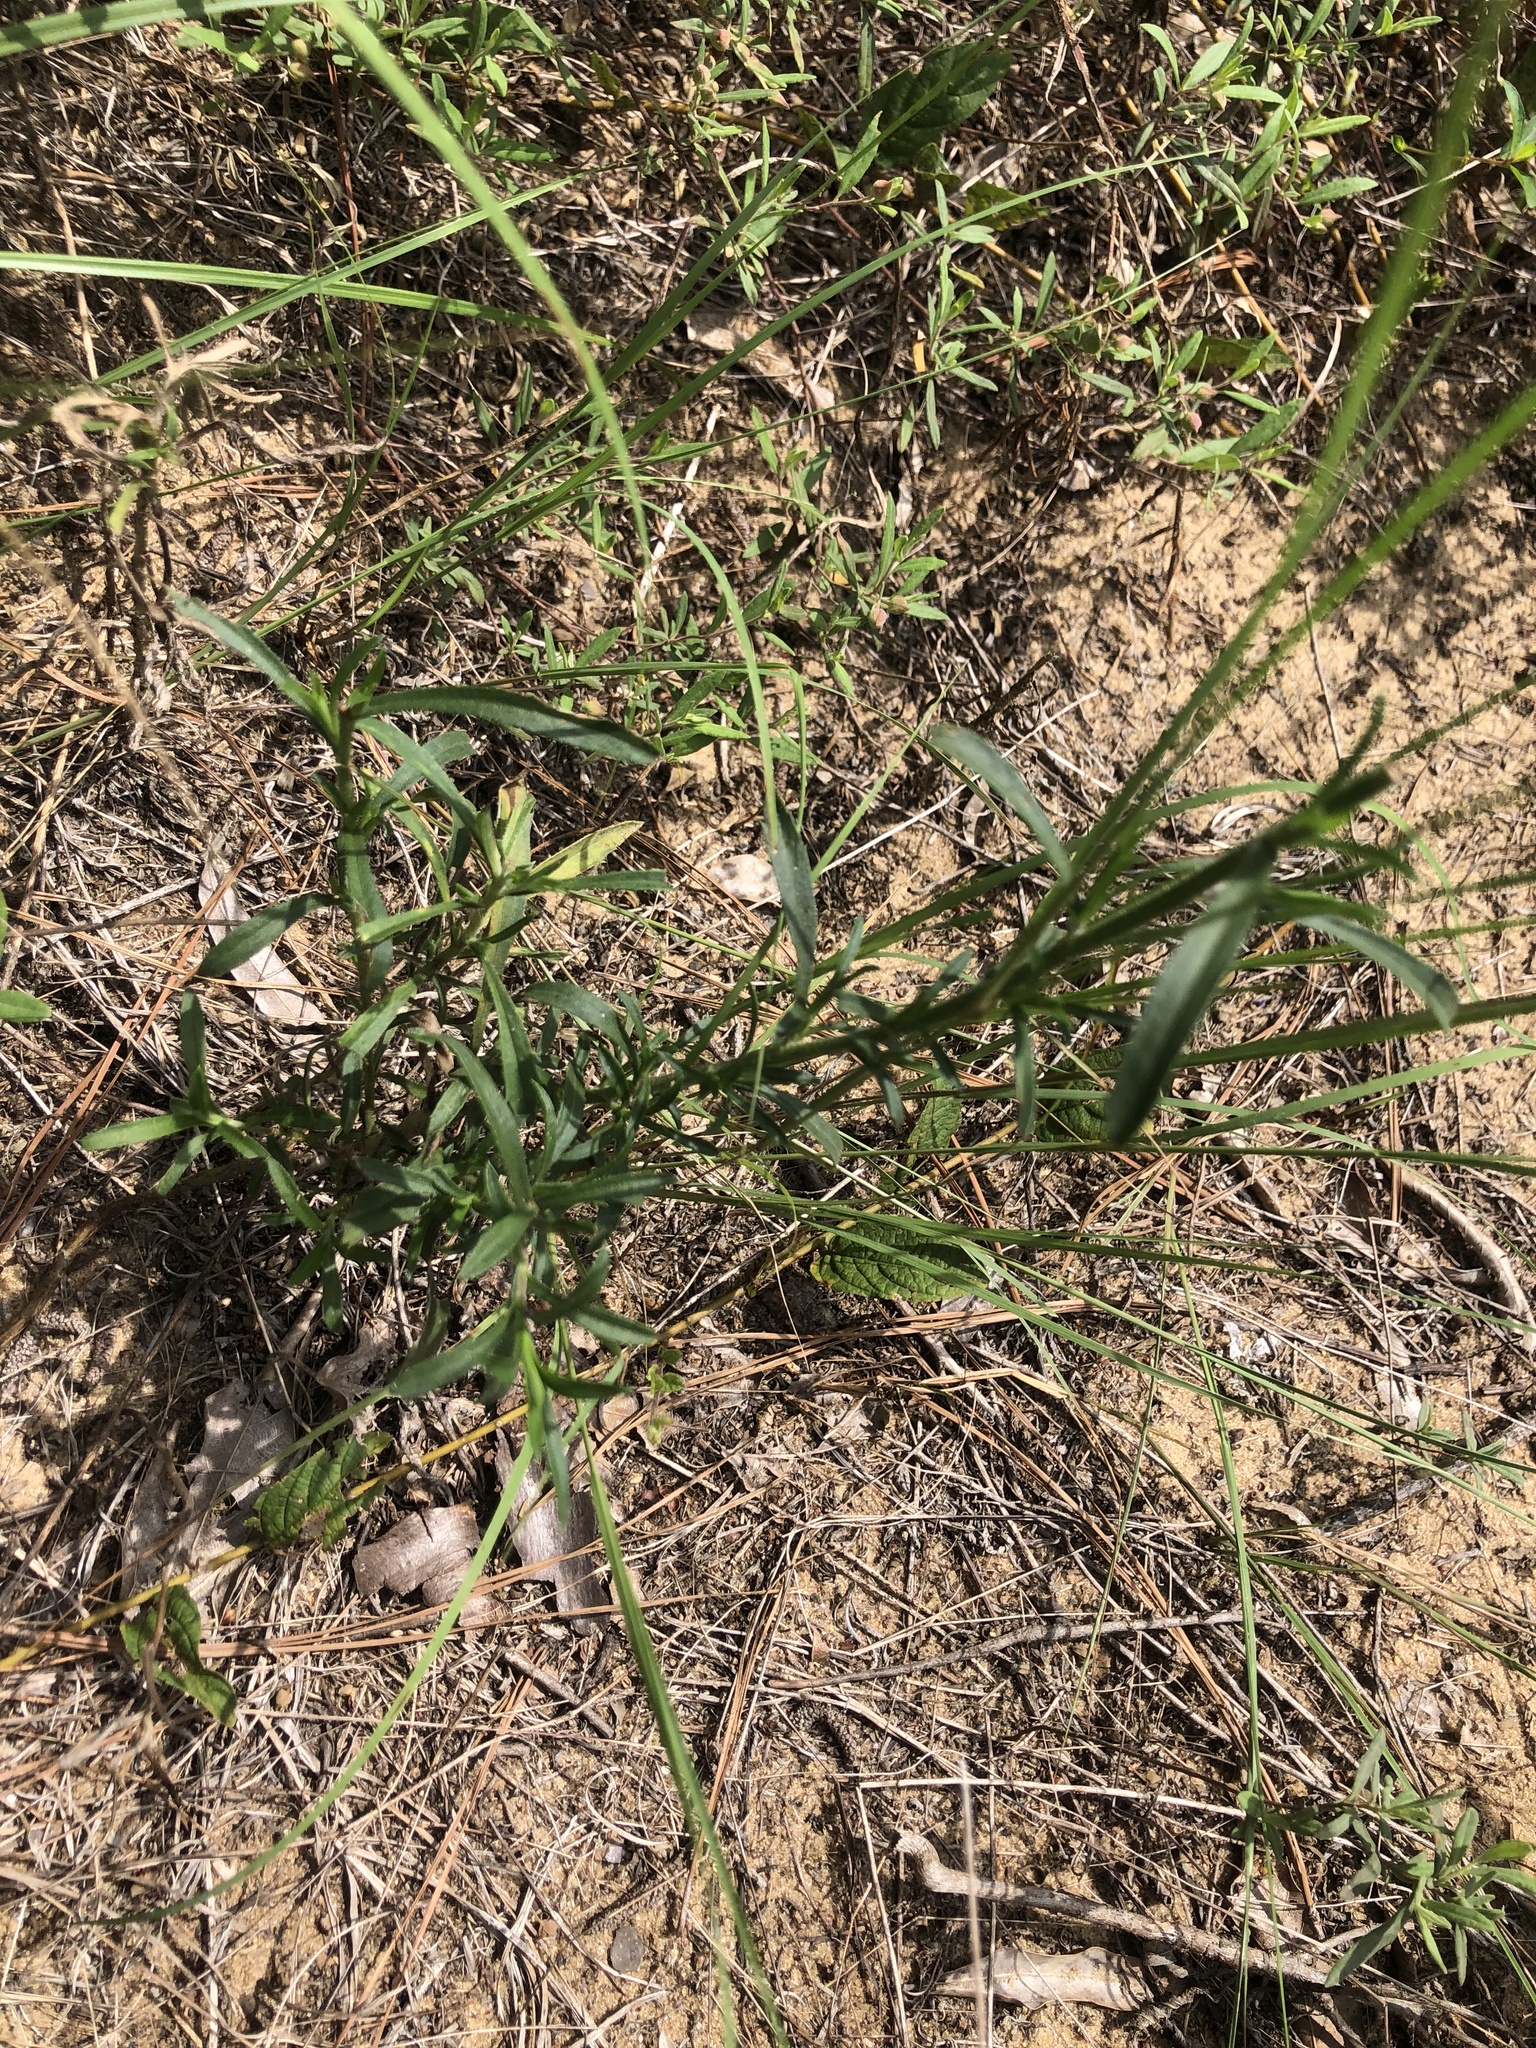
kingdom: Plantae
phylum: Tracheophyta
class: Liliopsida
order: Poales
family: Poaceae
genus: Dichanthelium
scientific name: Dichanthelium oligosanthes
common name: Few-anther obscuregrass
